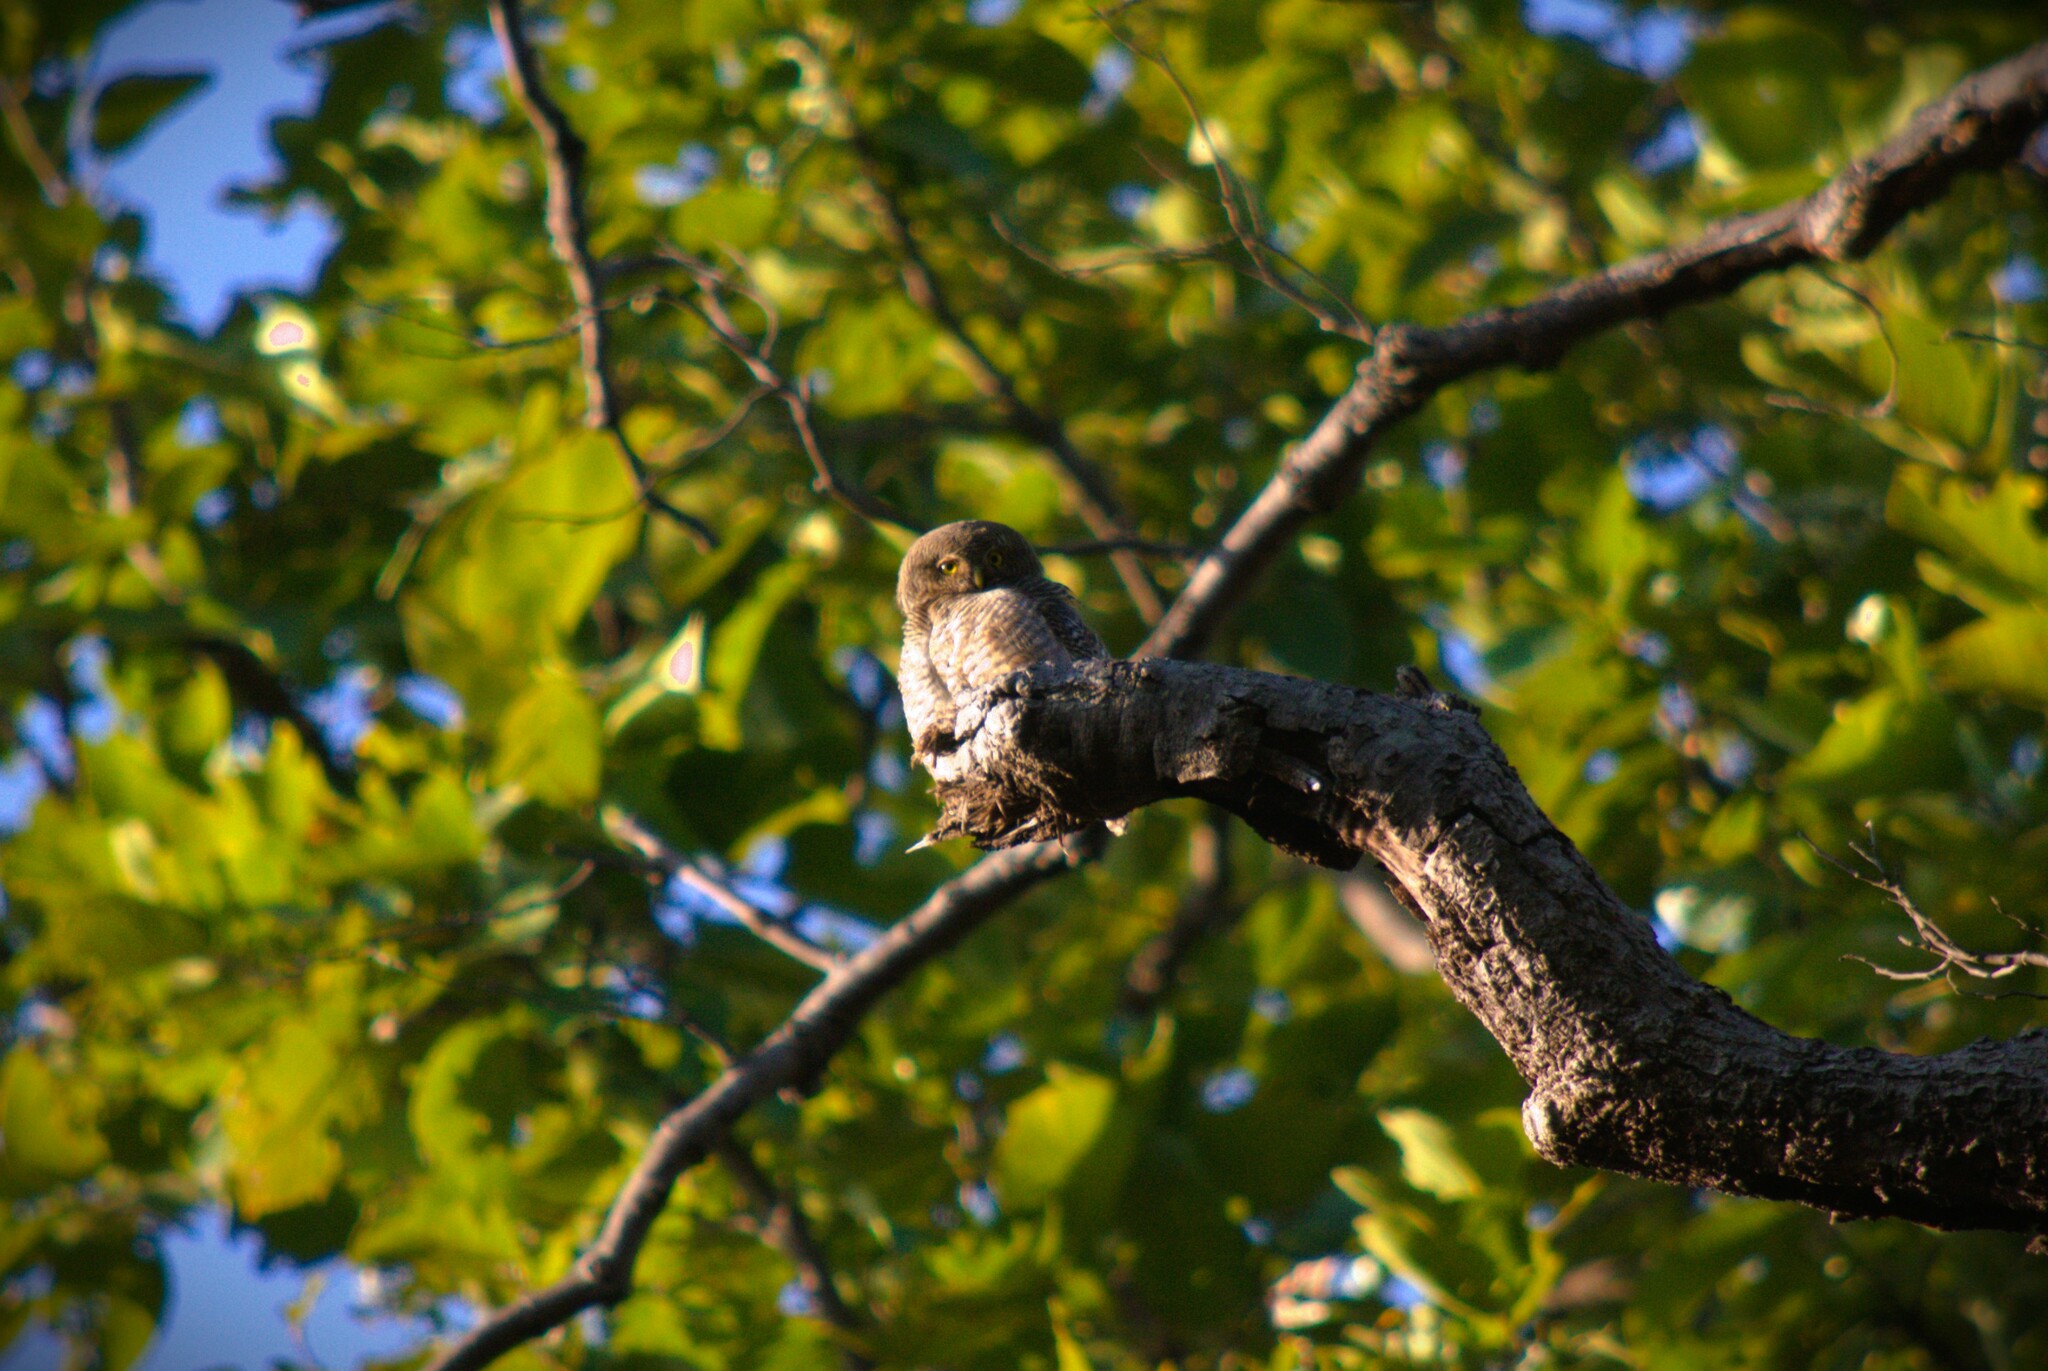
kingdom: Animalia
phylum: Chordata
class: Aves
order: Strigiformes
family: Strigidae
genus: Glaucidium
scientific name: Glaucidium radiatum
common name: Jungle owlet
